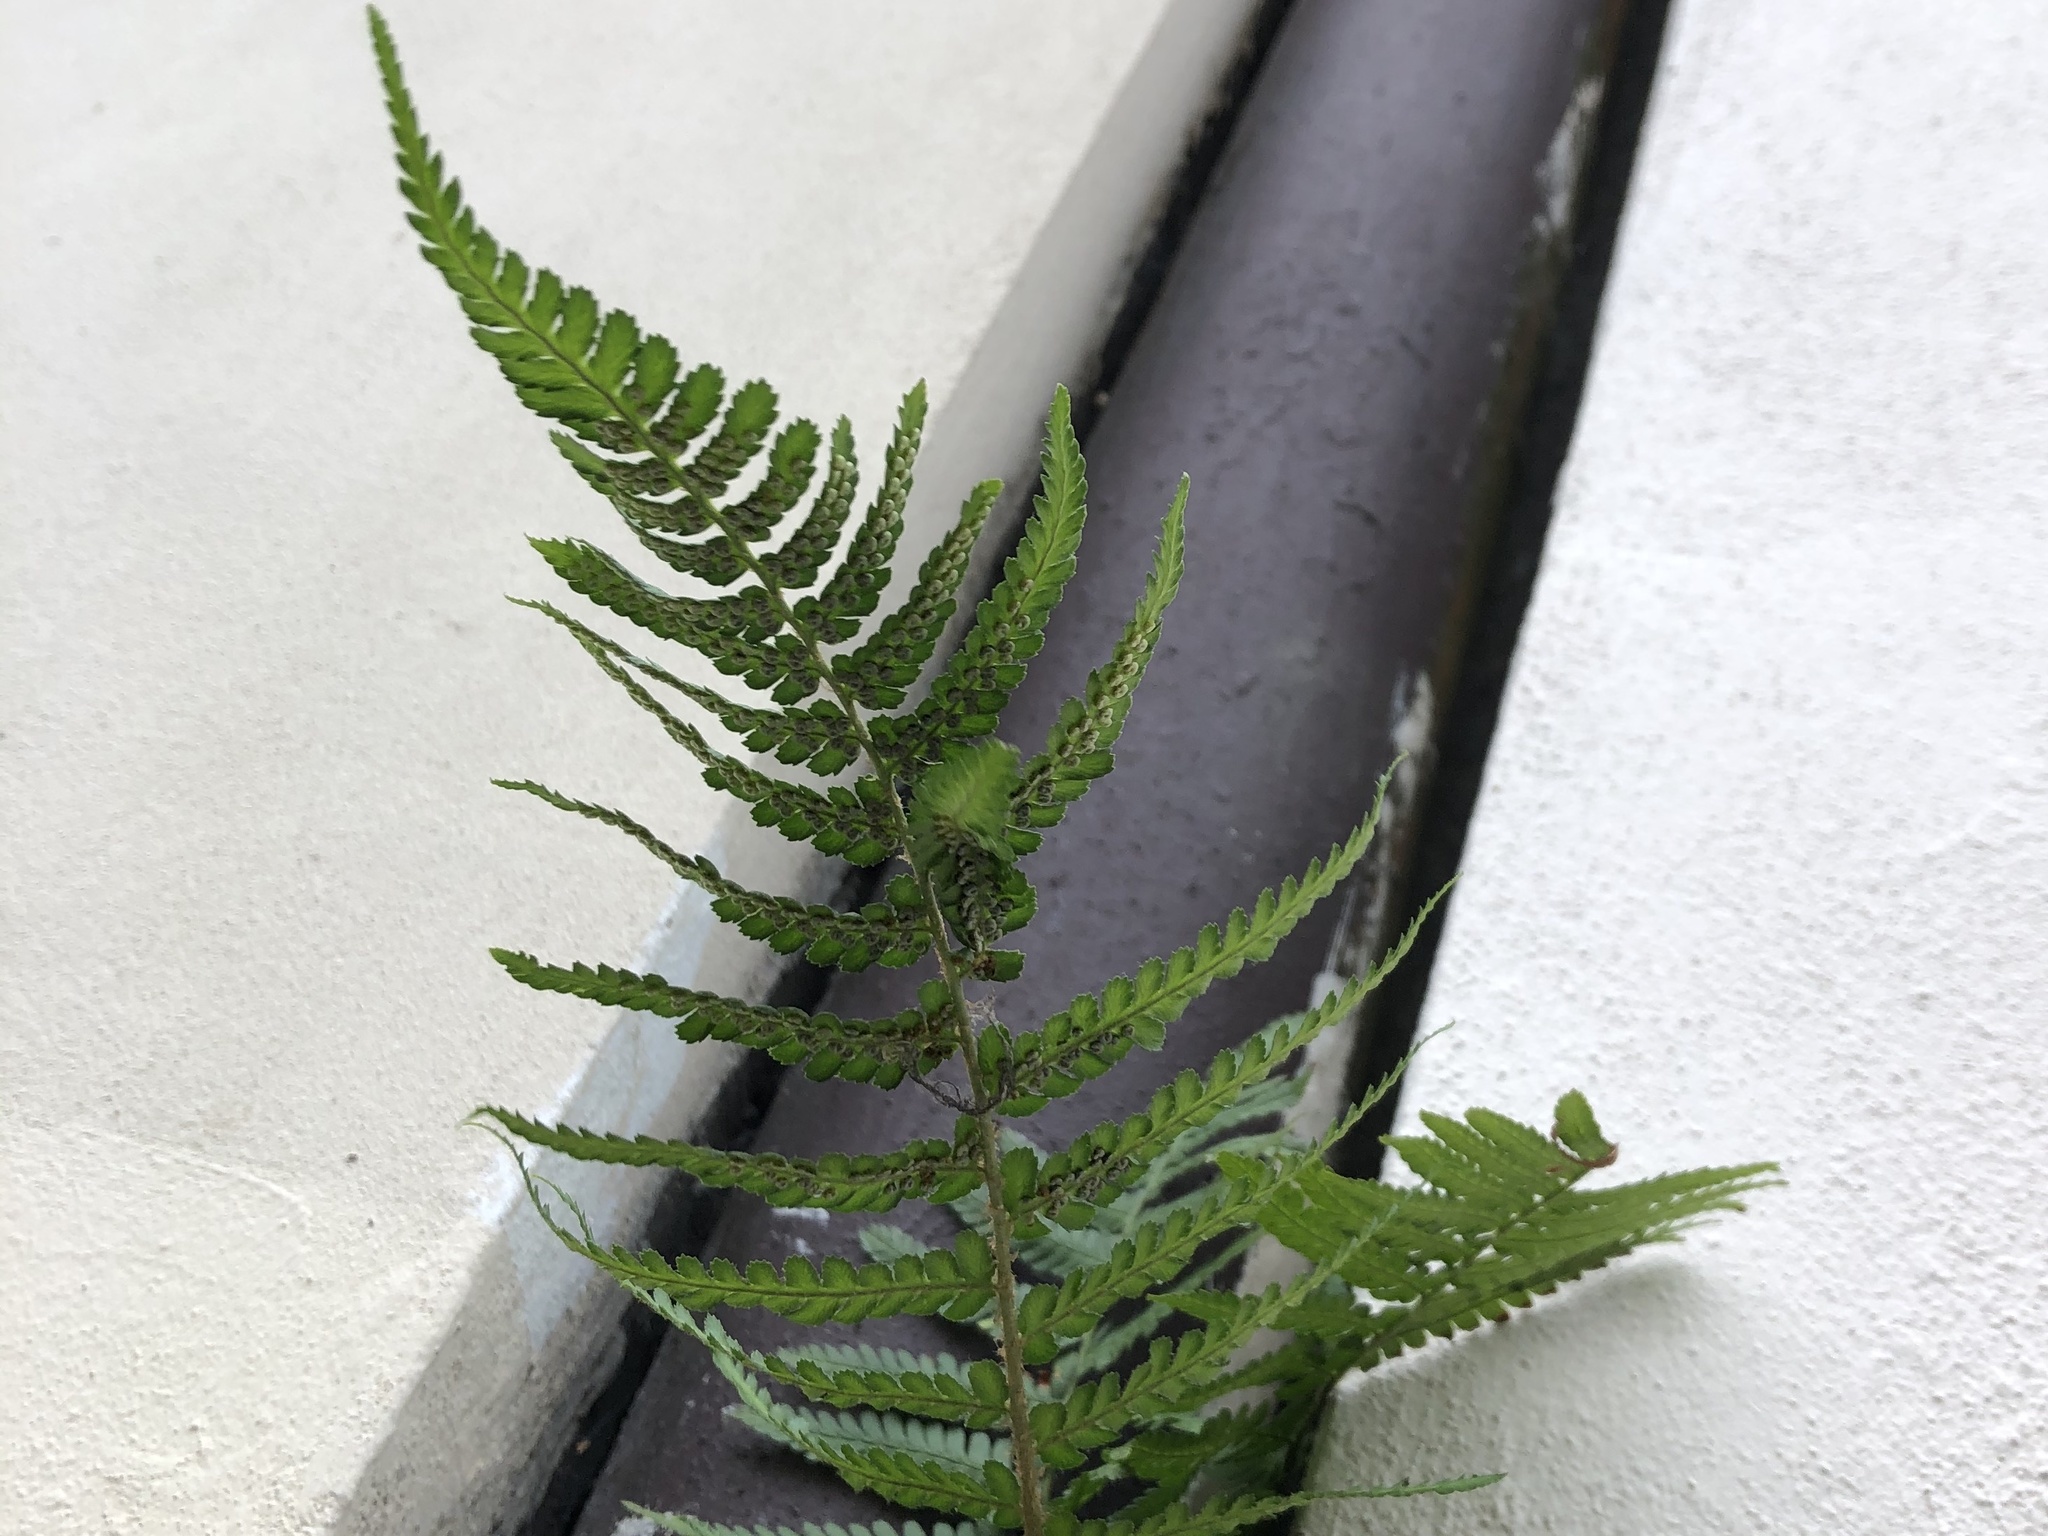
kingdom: Plantae
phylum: Tracheophyta
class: Polypodiopsida
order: Polypodiales
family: Dryopteridaceae
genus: Dryopteris
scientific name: Dryopteris filix-mas
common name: Male fern
